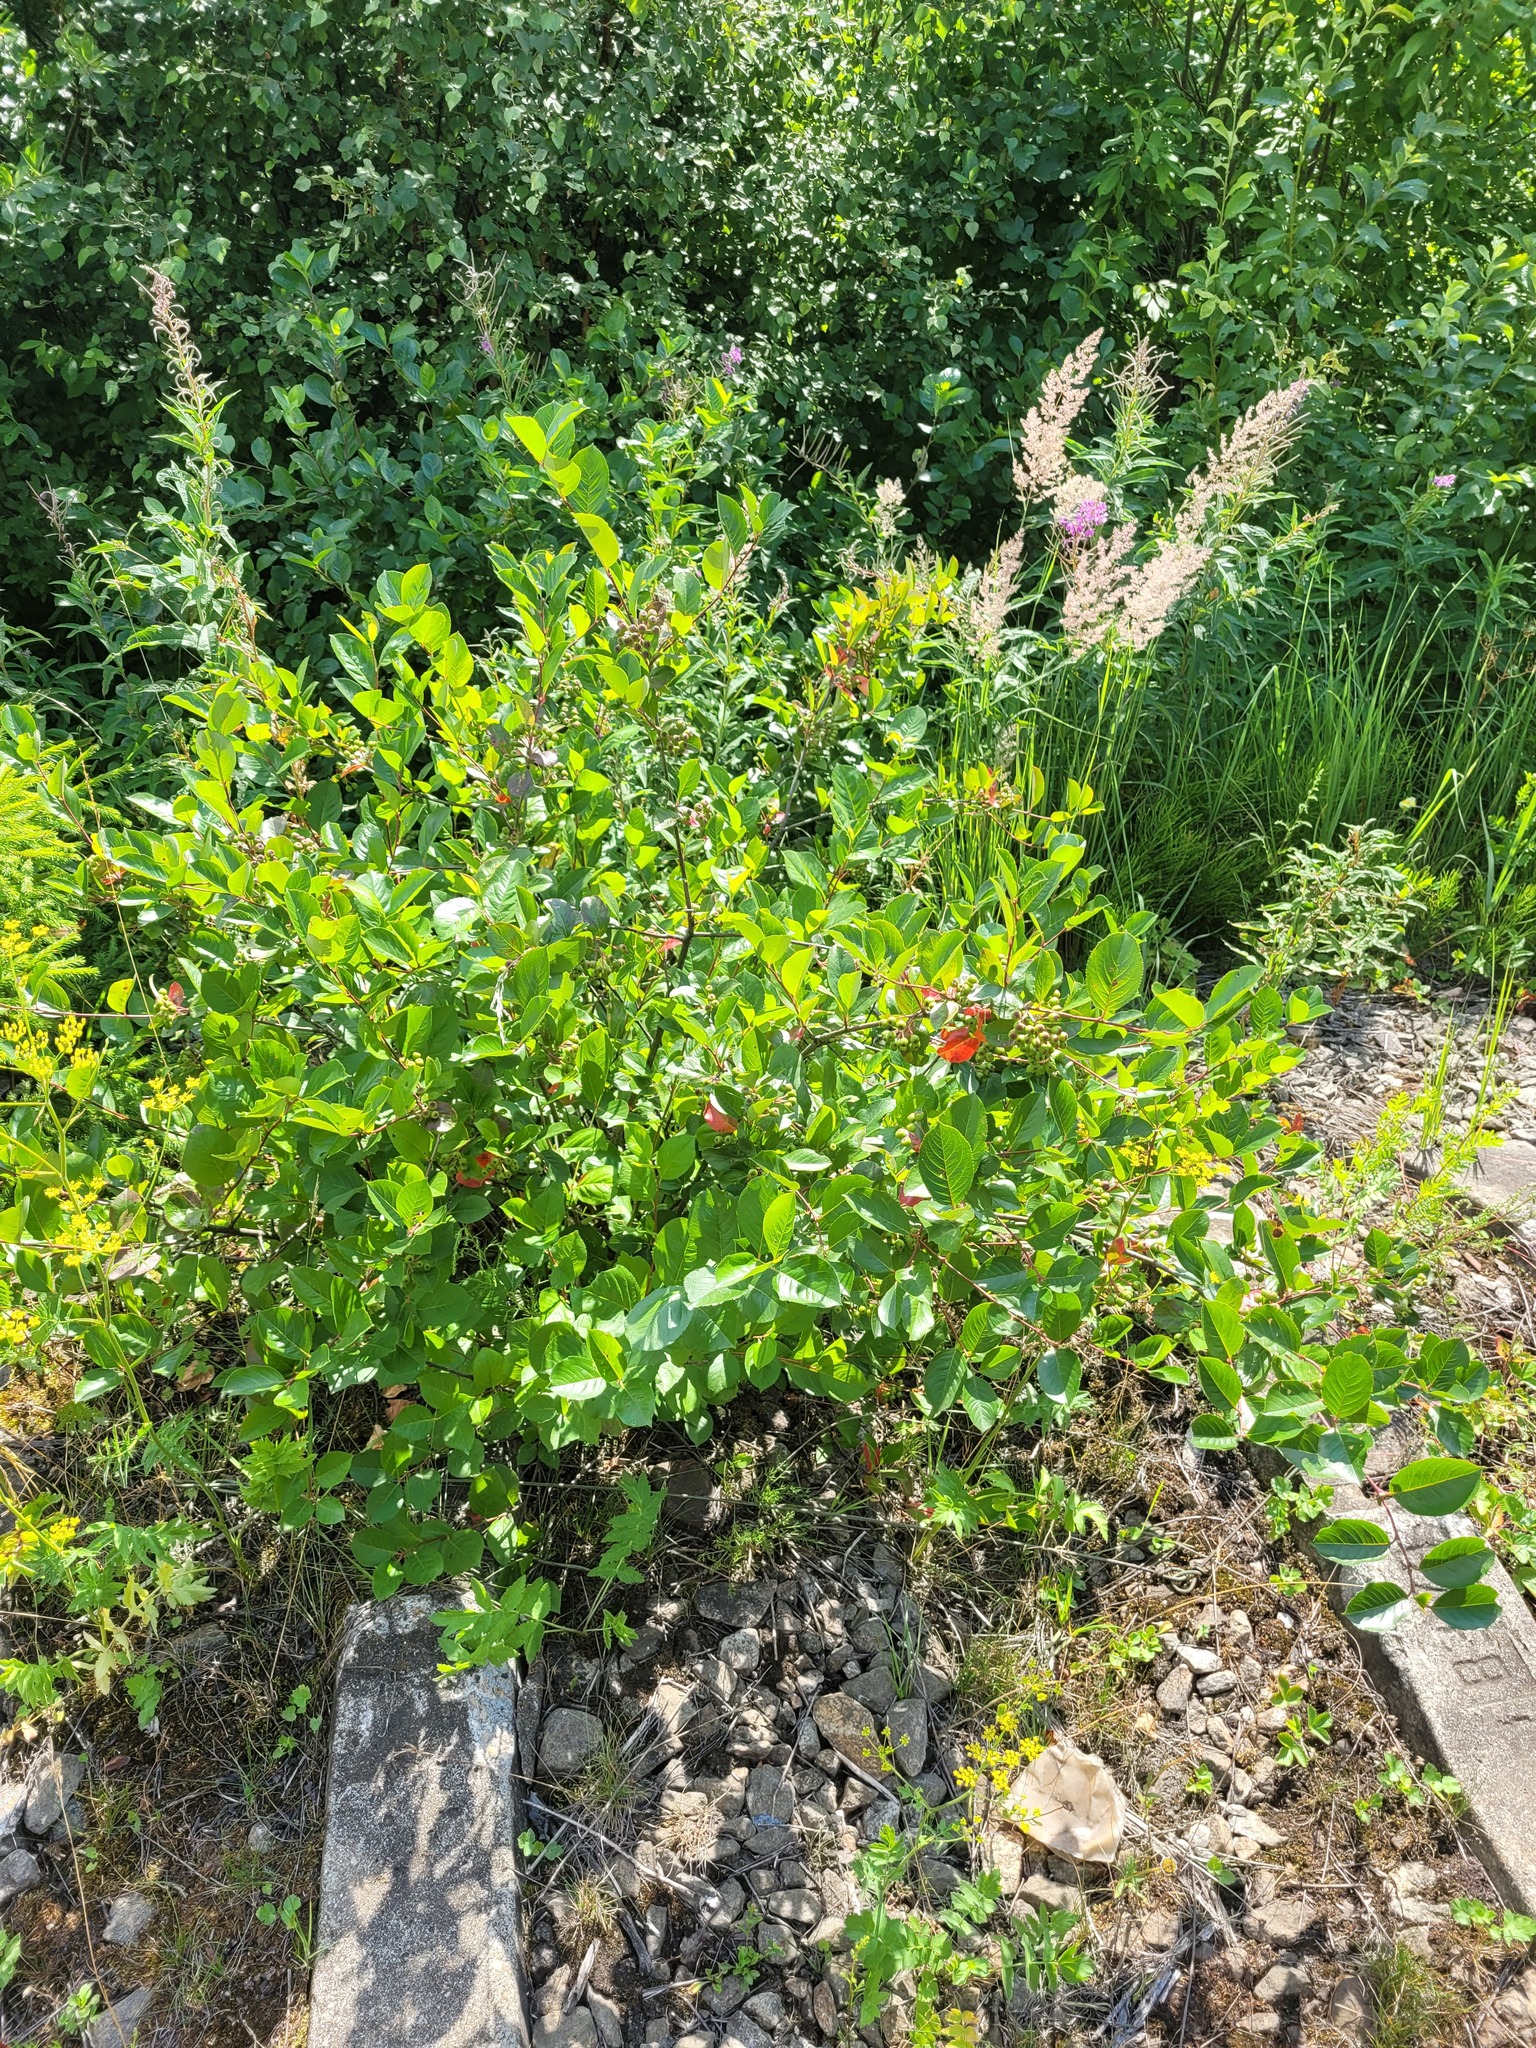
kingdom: Plantae
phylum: Tracheophyta
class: Magnoliopsida
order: Rosales
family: Rosaceae
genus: Sorbaronia
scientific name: Sorbaronia arsenii
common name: Arsène's mountain-ash
